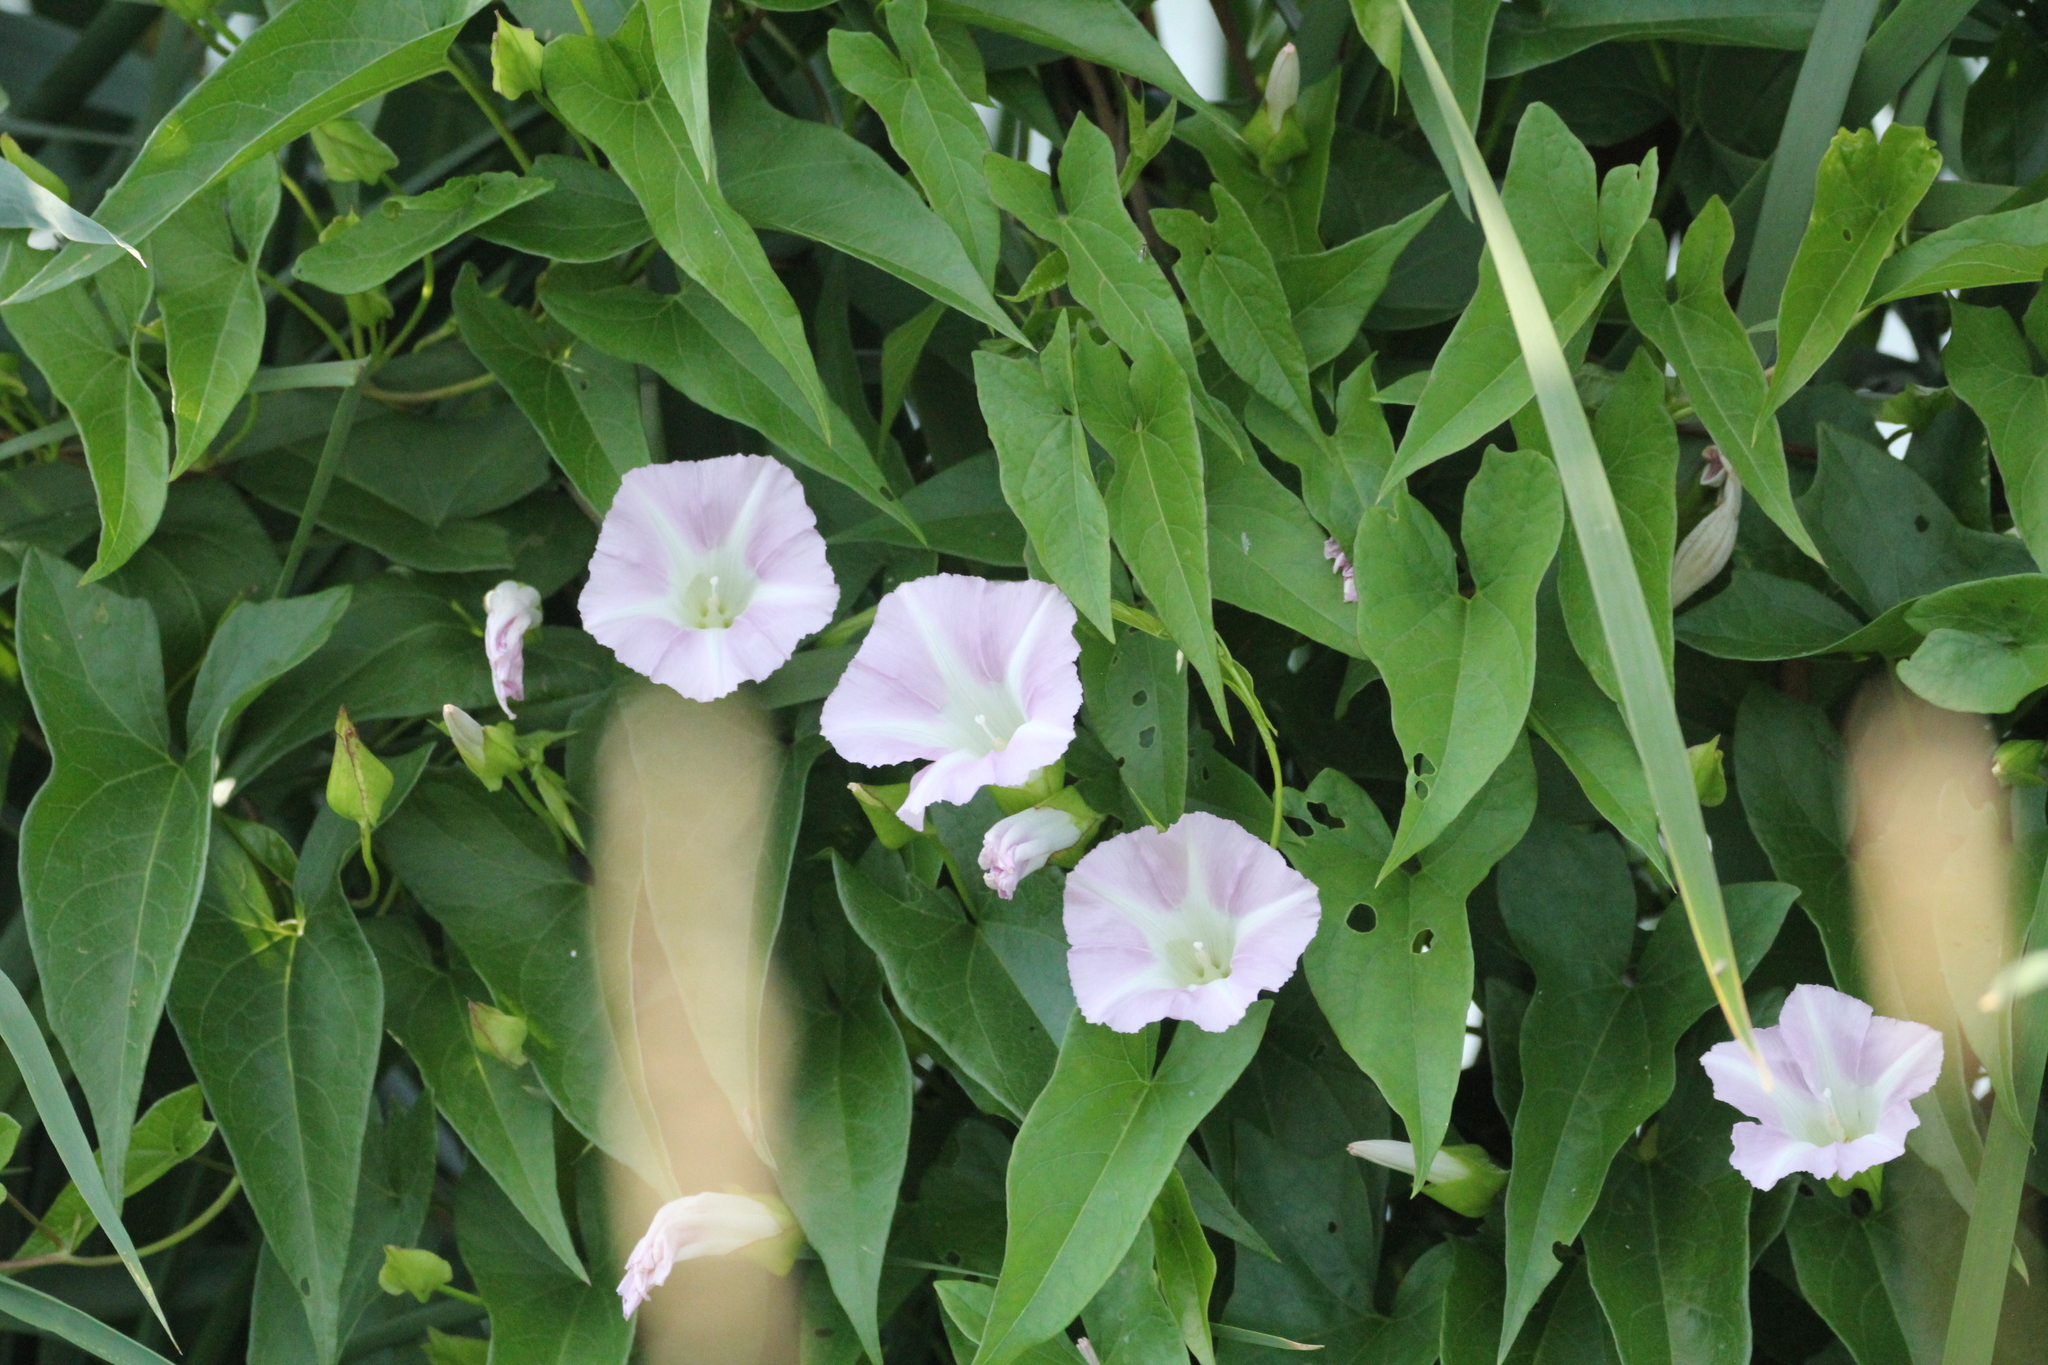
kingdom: Plantae
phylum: Tracheophyta
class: Magnoliopsida
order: Solanales
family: Convolvulaceae
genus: Calystegia
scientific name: Calystegia sepium
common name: Hedge bindweed
